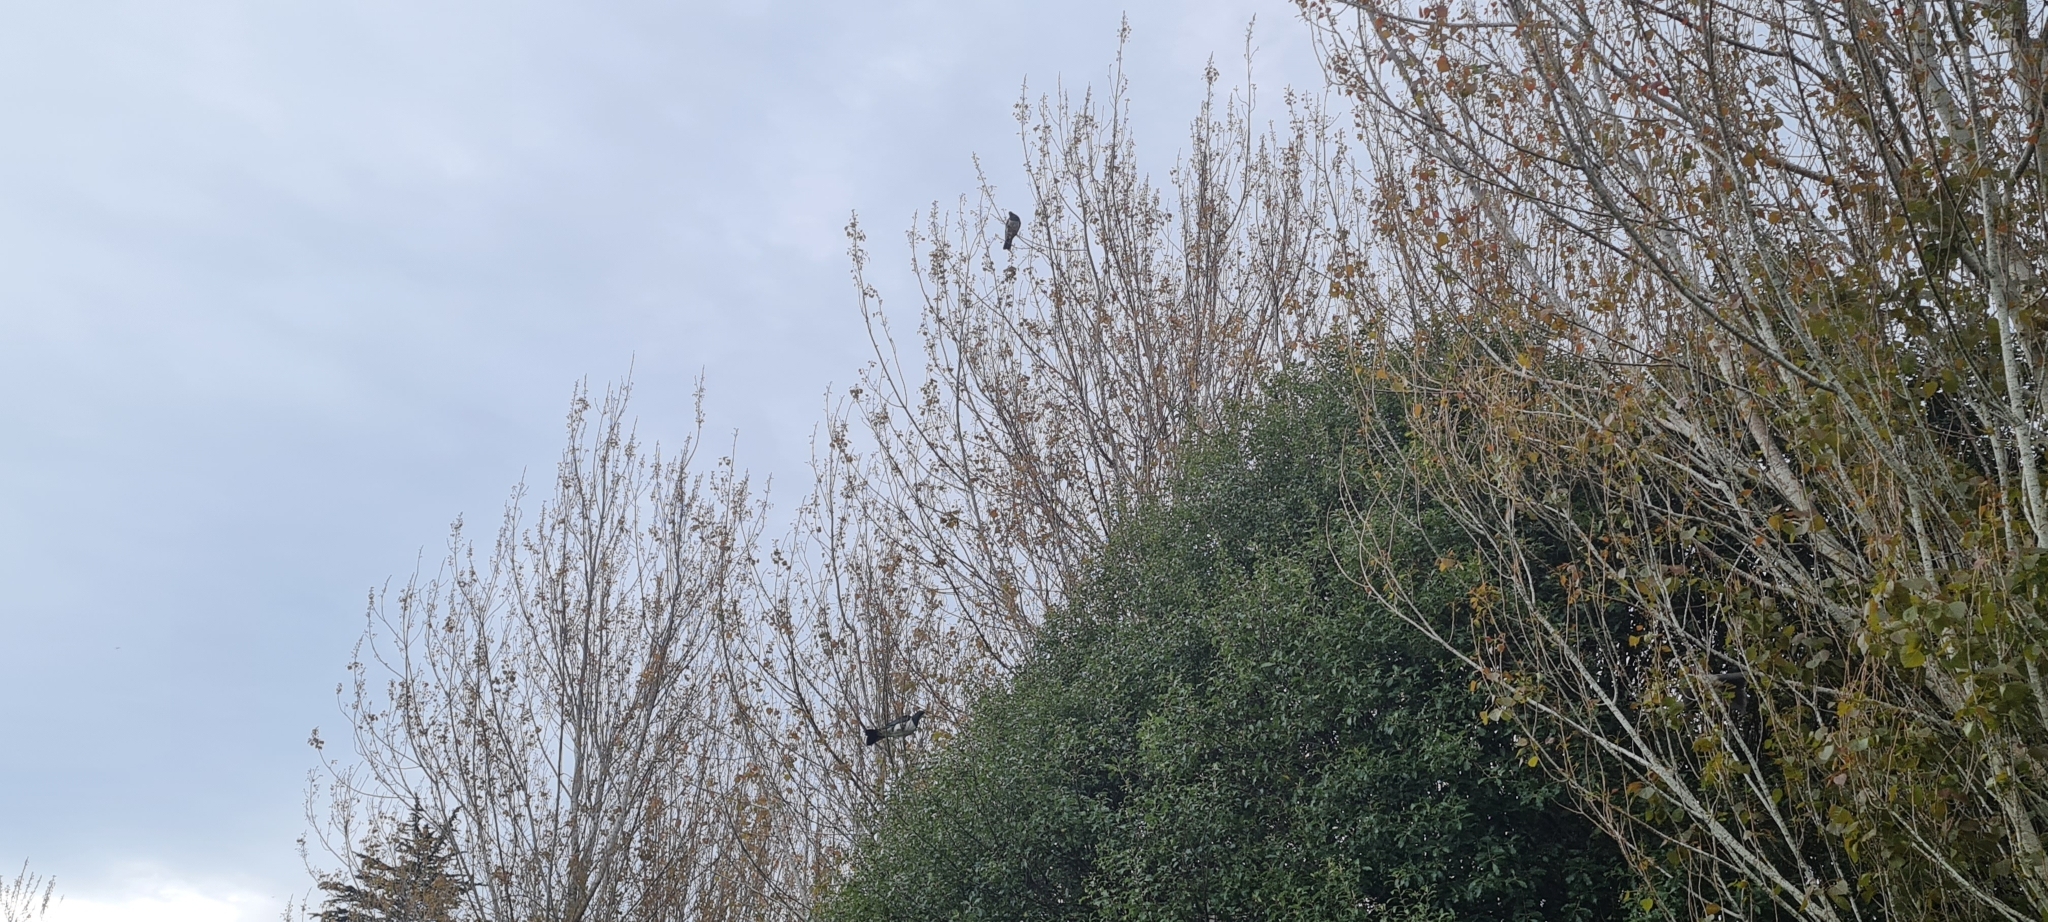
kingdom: Animalia
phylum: Chordata
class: Aves
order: Columbiformes
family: Columbidae
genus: Hemiphaga
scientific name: Hemiphaga novaeseelandiae
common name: New zealand pigeon
